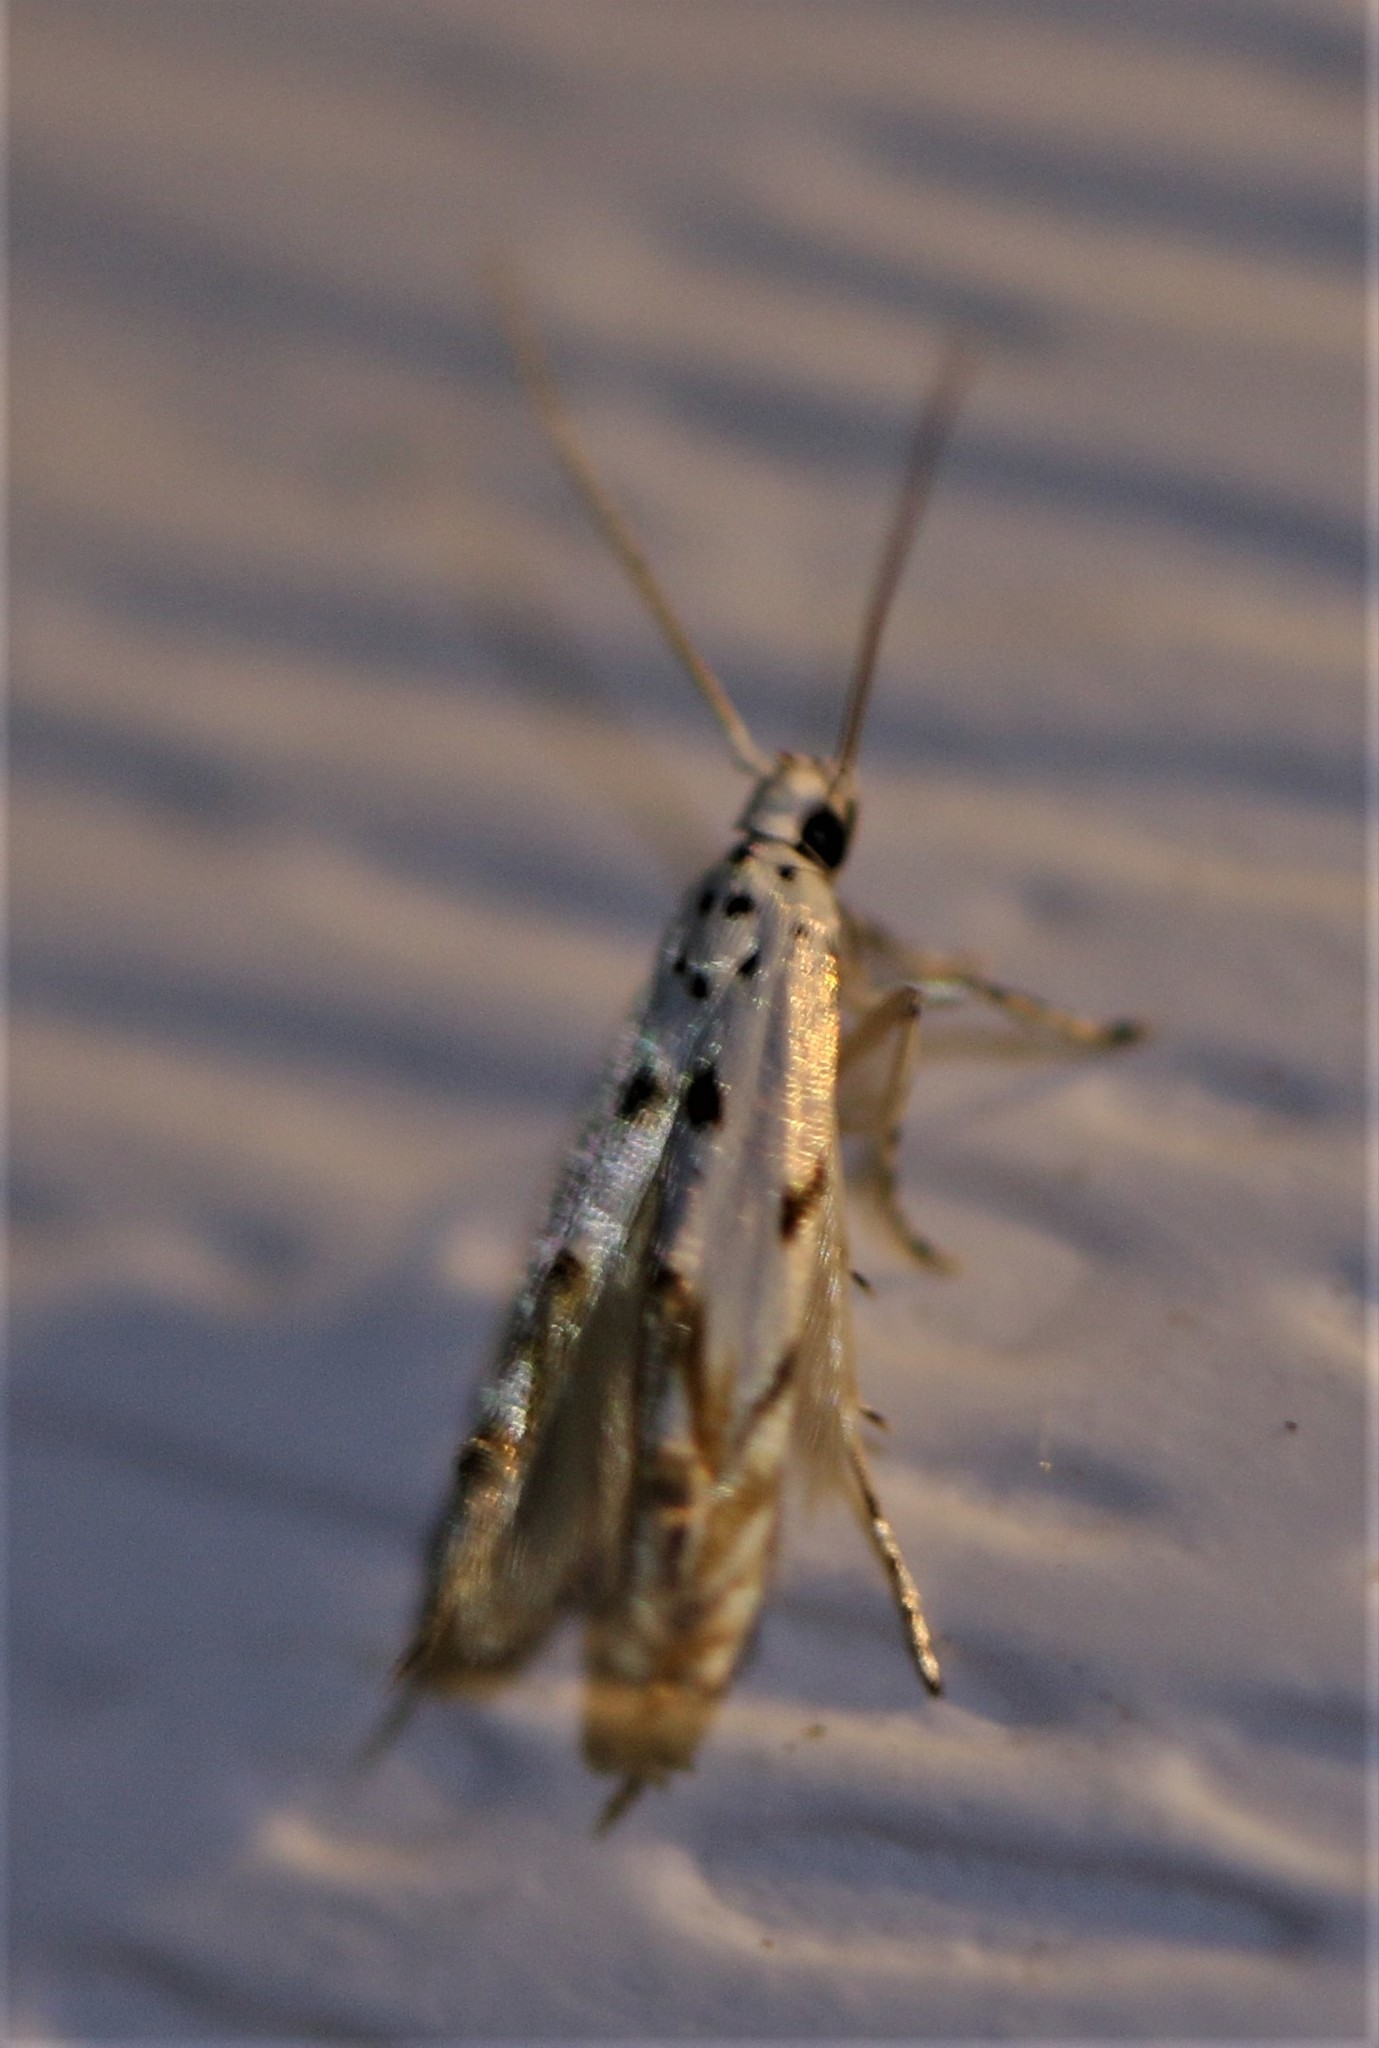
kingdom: Animalia
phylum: Arthropoda
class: Insecta
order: Lepidoptera
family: Momphidae
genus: Mompha
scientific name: Mompha eloisella
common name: Red-streaked mompha moth
